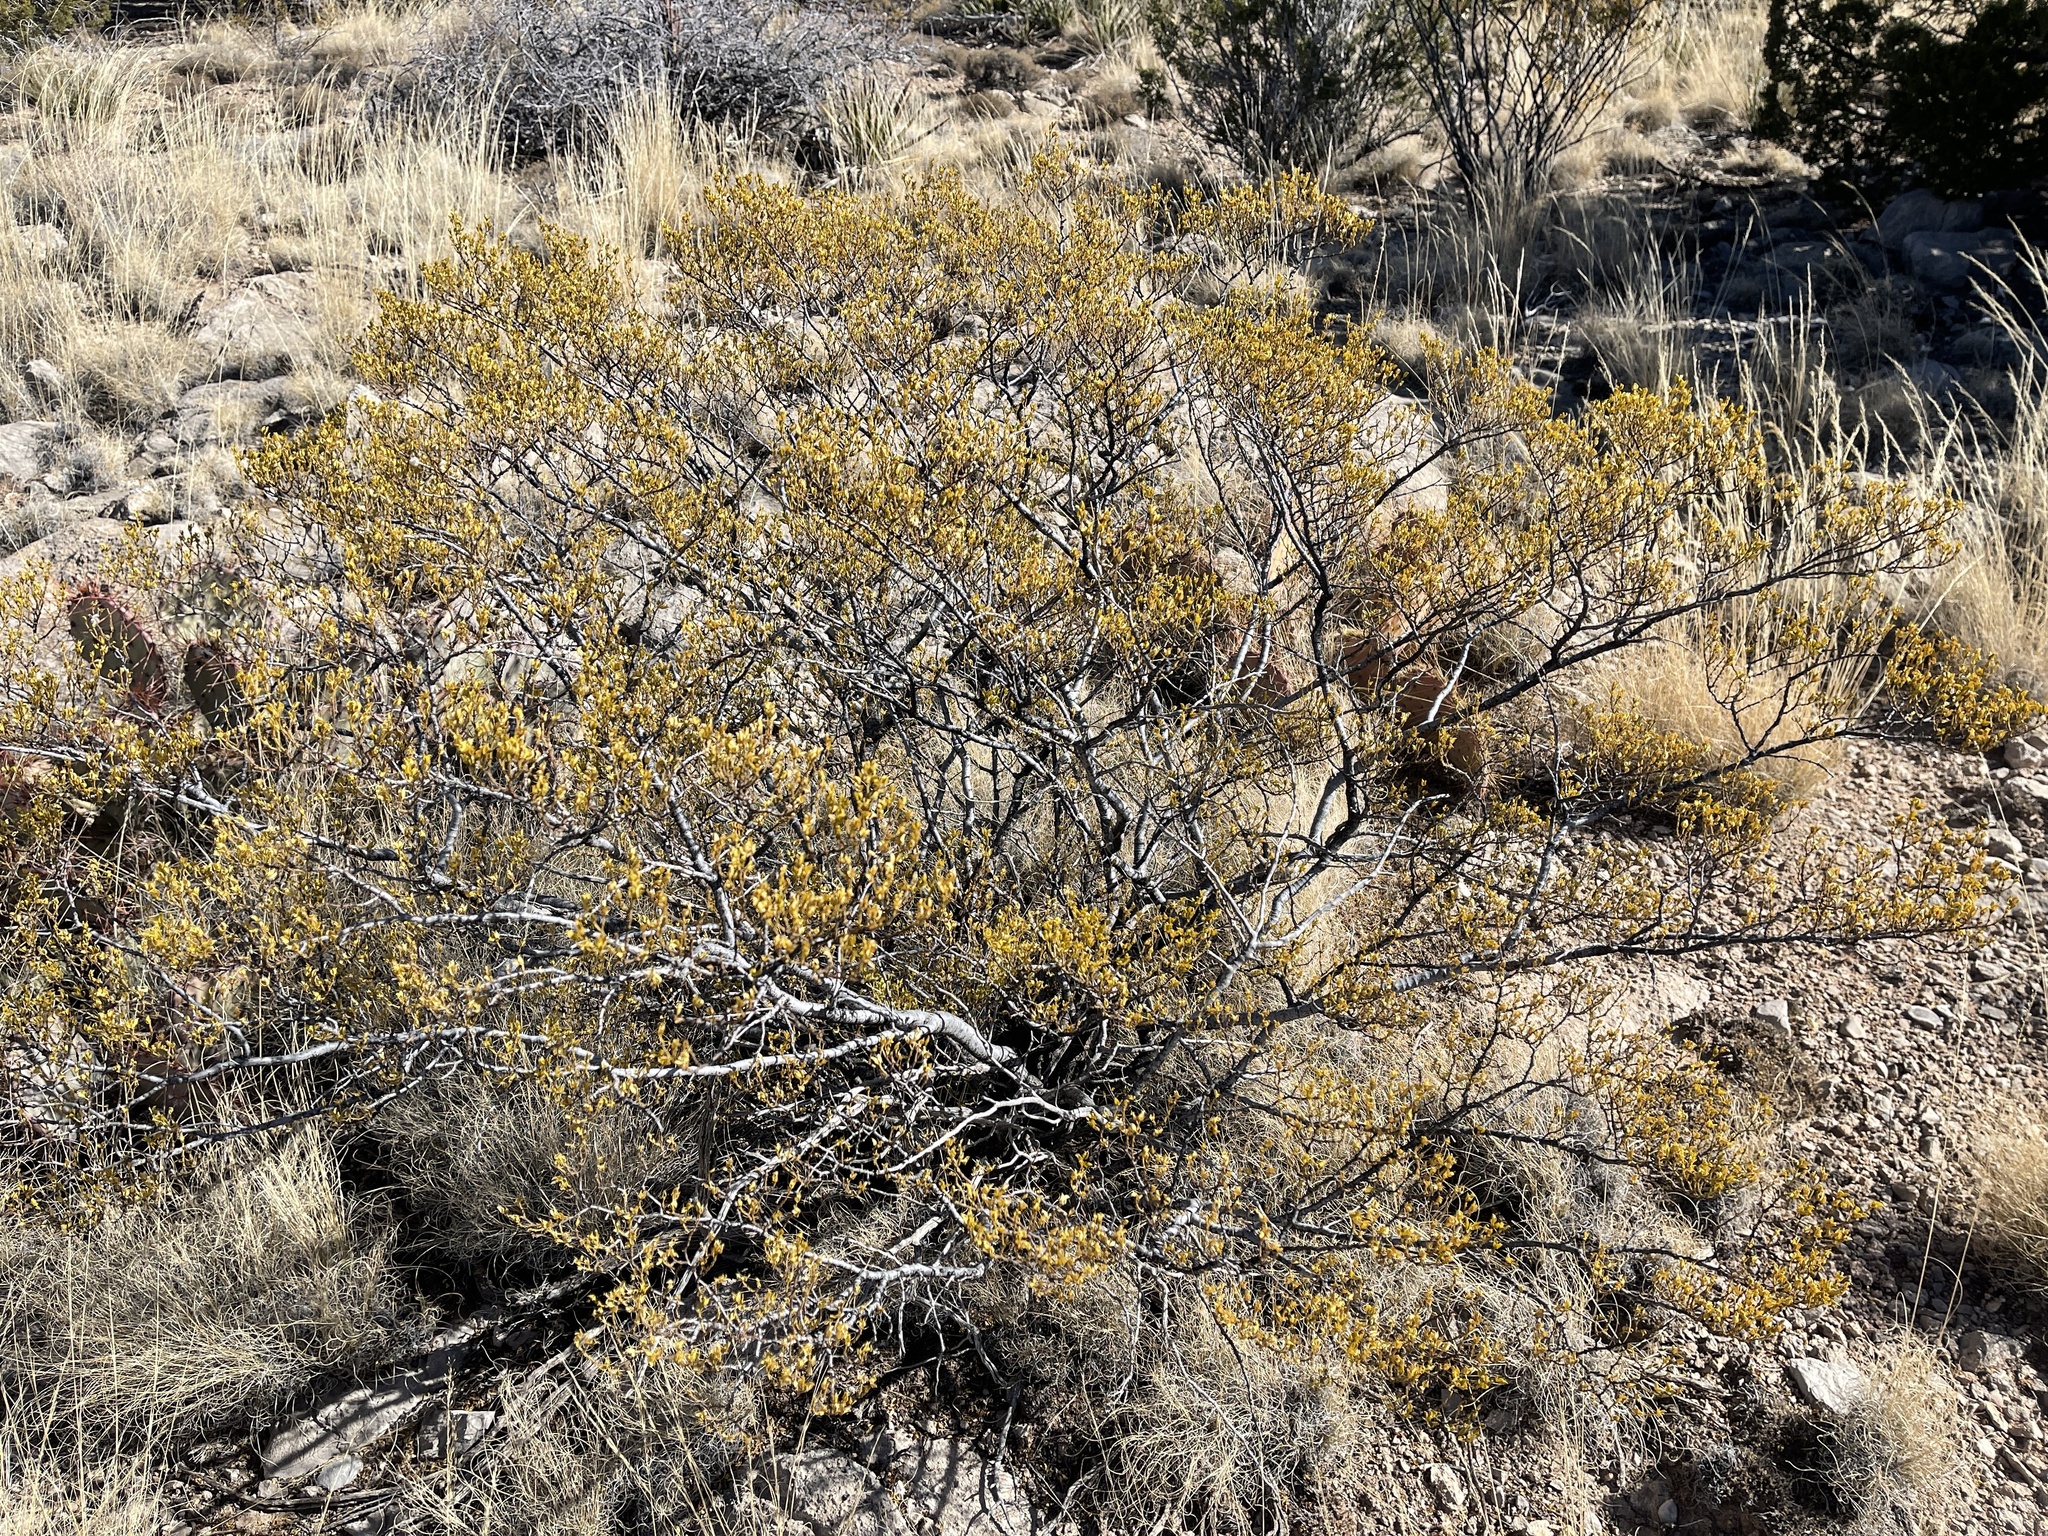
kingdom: Plantae
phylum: Tracheophyta
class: Magnoliopsida
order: Zygophyllales
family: Zygophyllaceae
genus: Larrea
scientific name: Larrea tridentata
